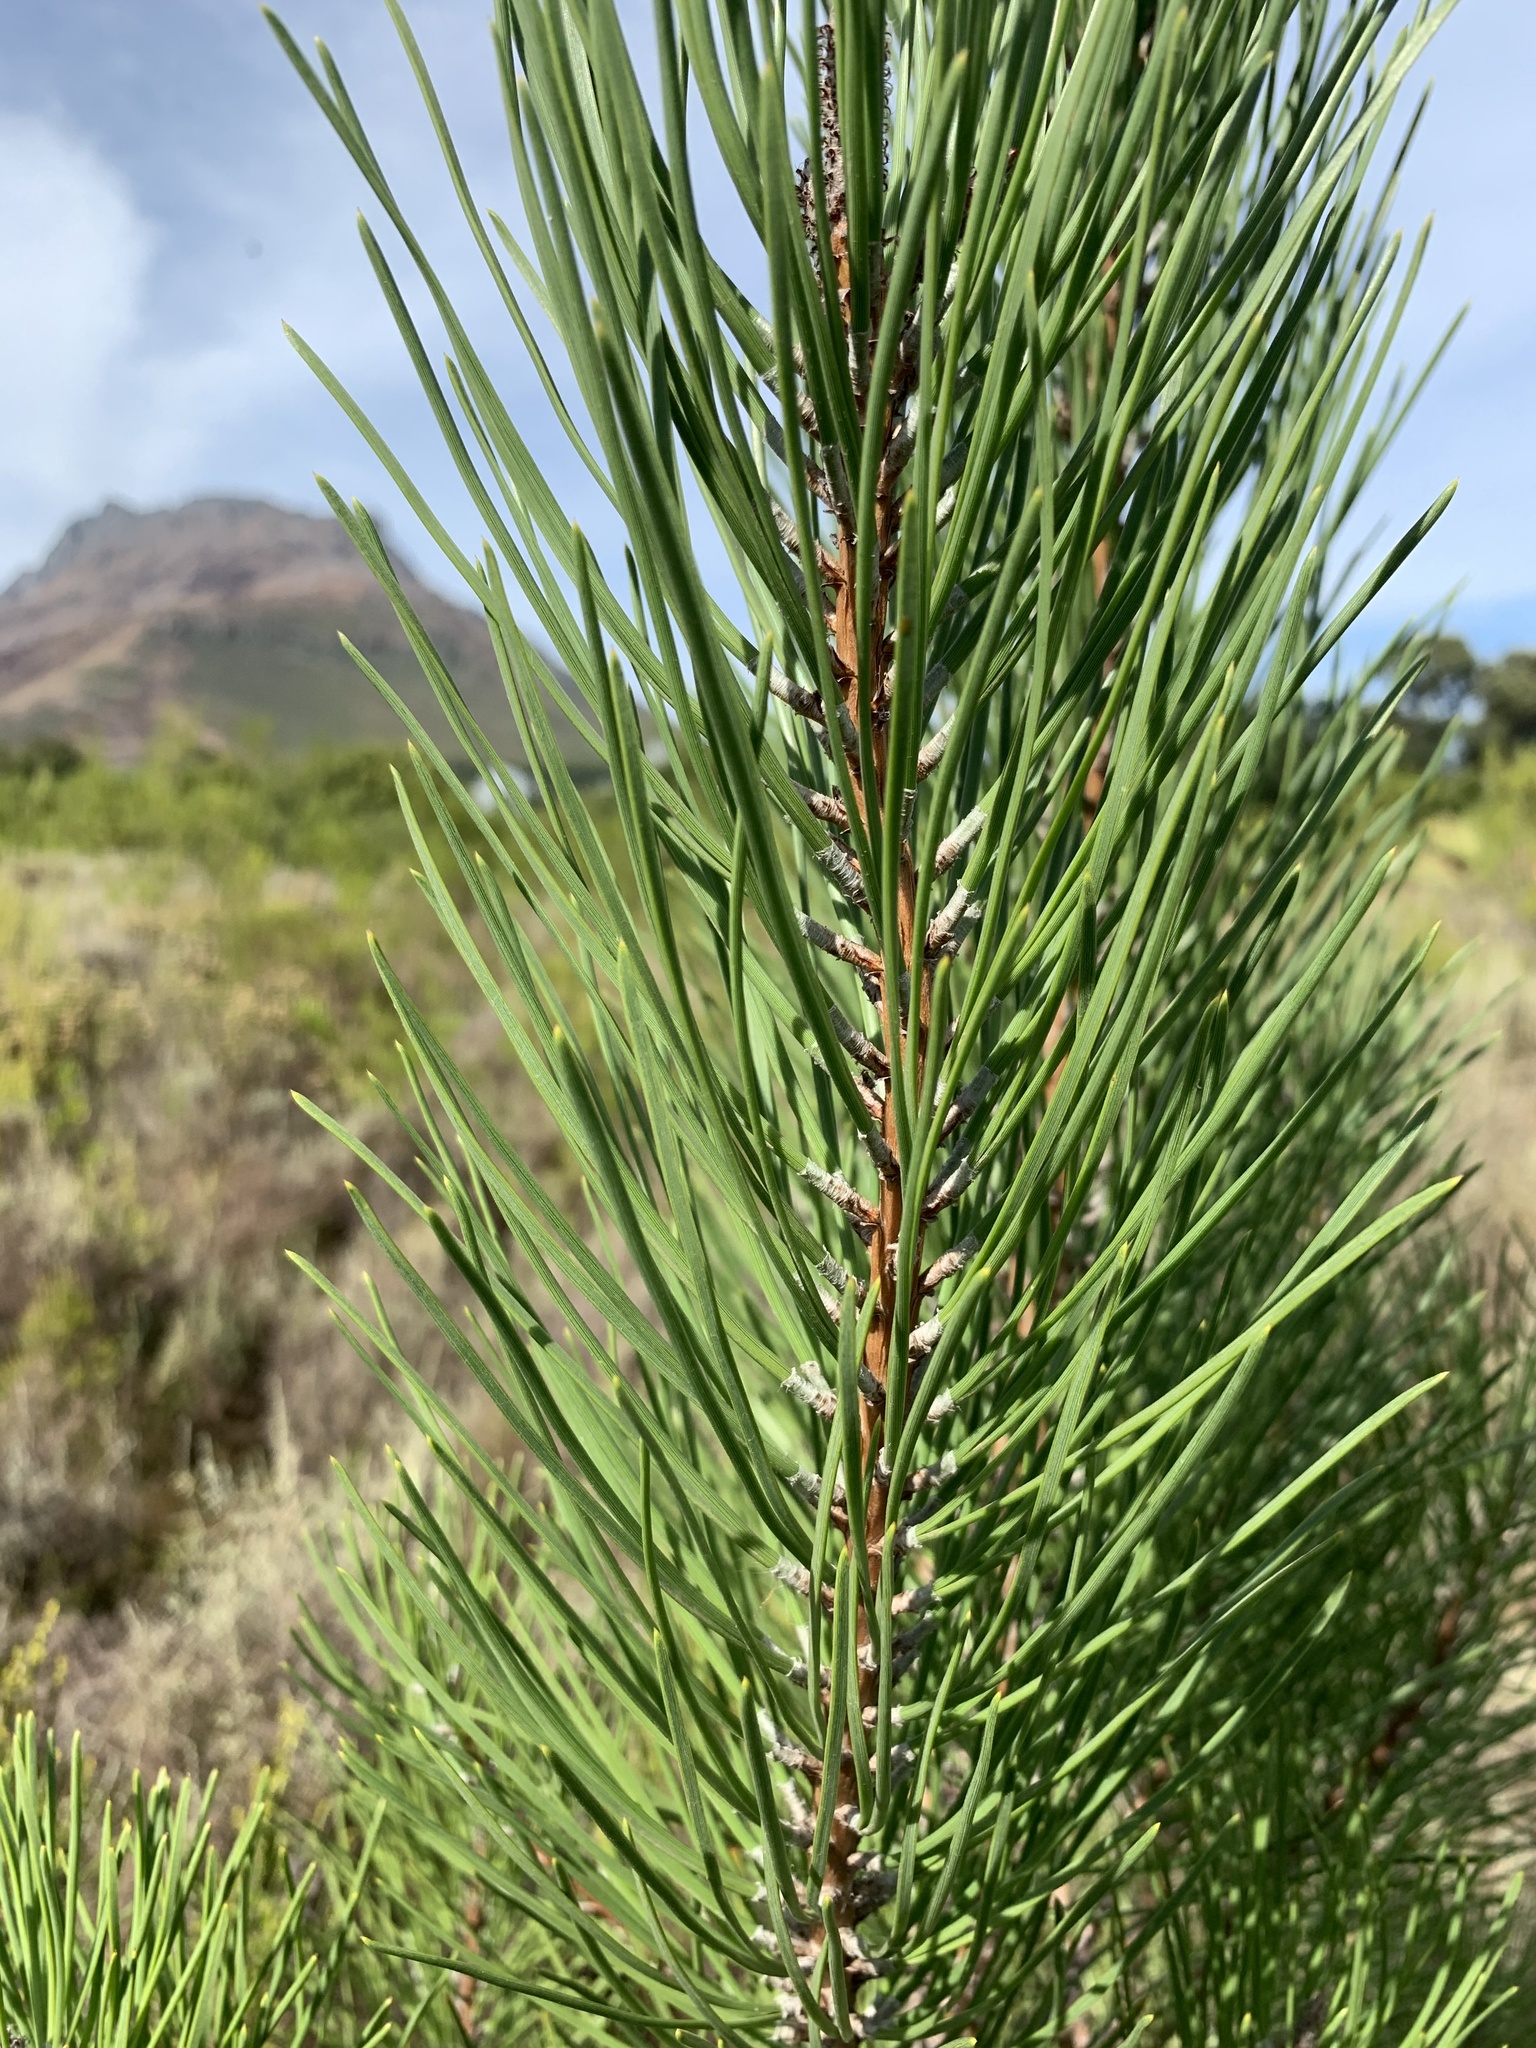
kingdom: Plantae
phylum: Tracheophyta
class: Pinopsida
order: Pinales
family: Pinaceae
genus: Pinus
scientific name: Pinus pinaster
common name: Maritime pine
